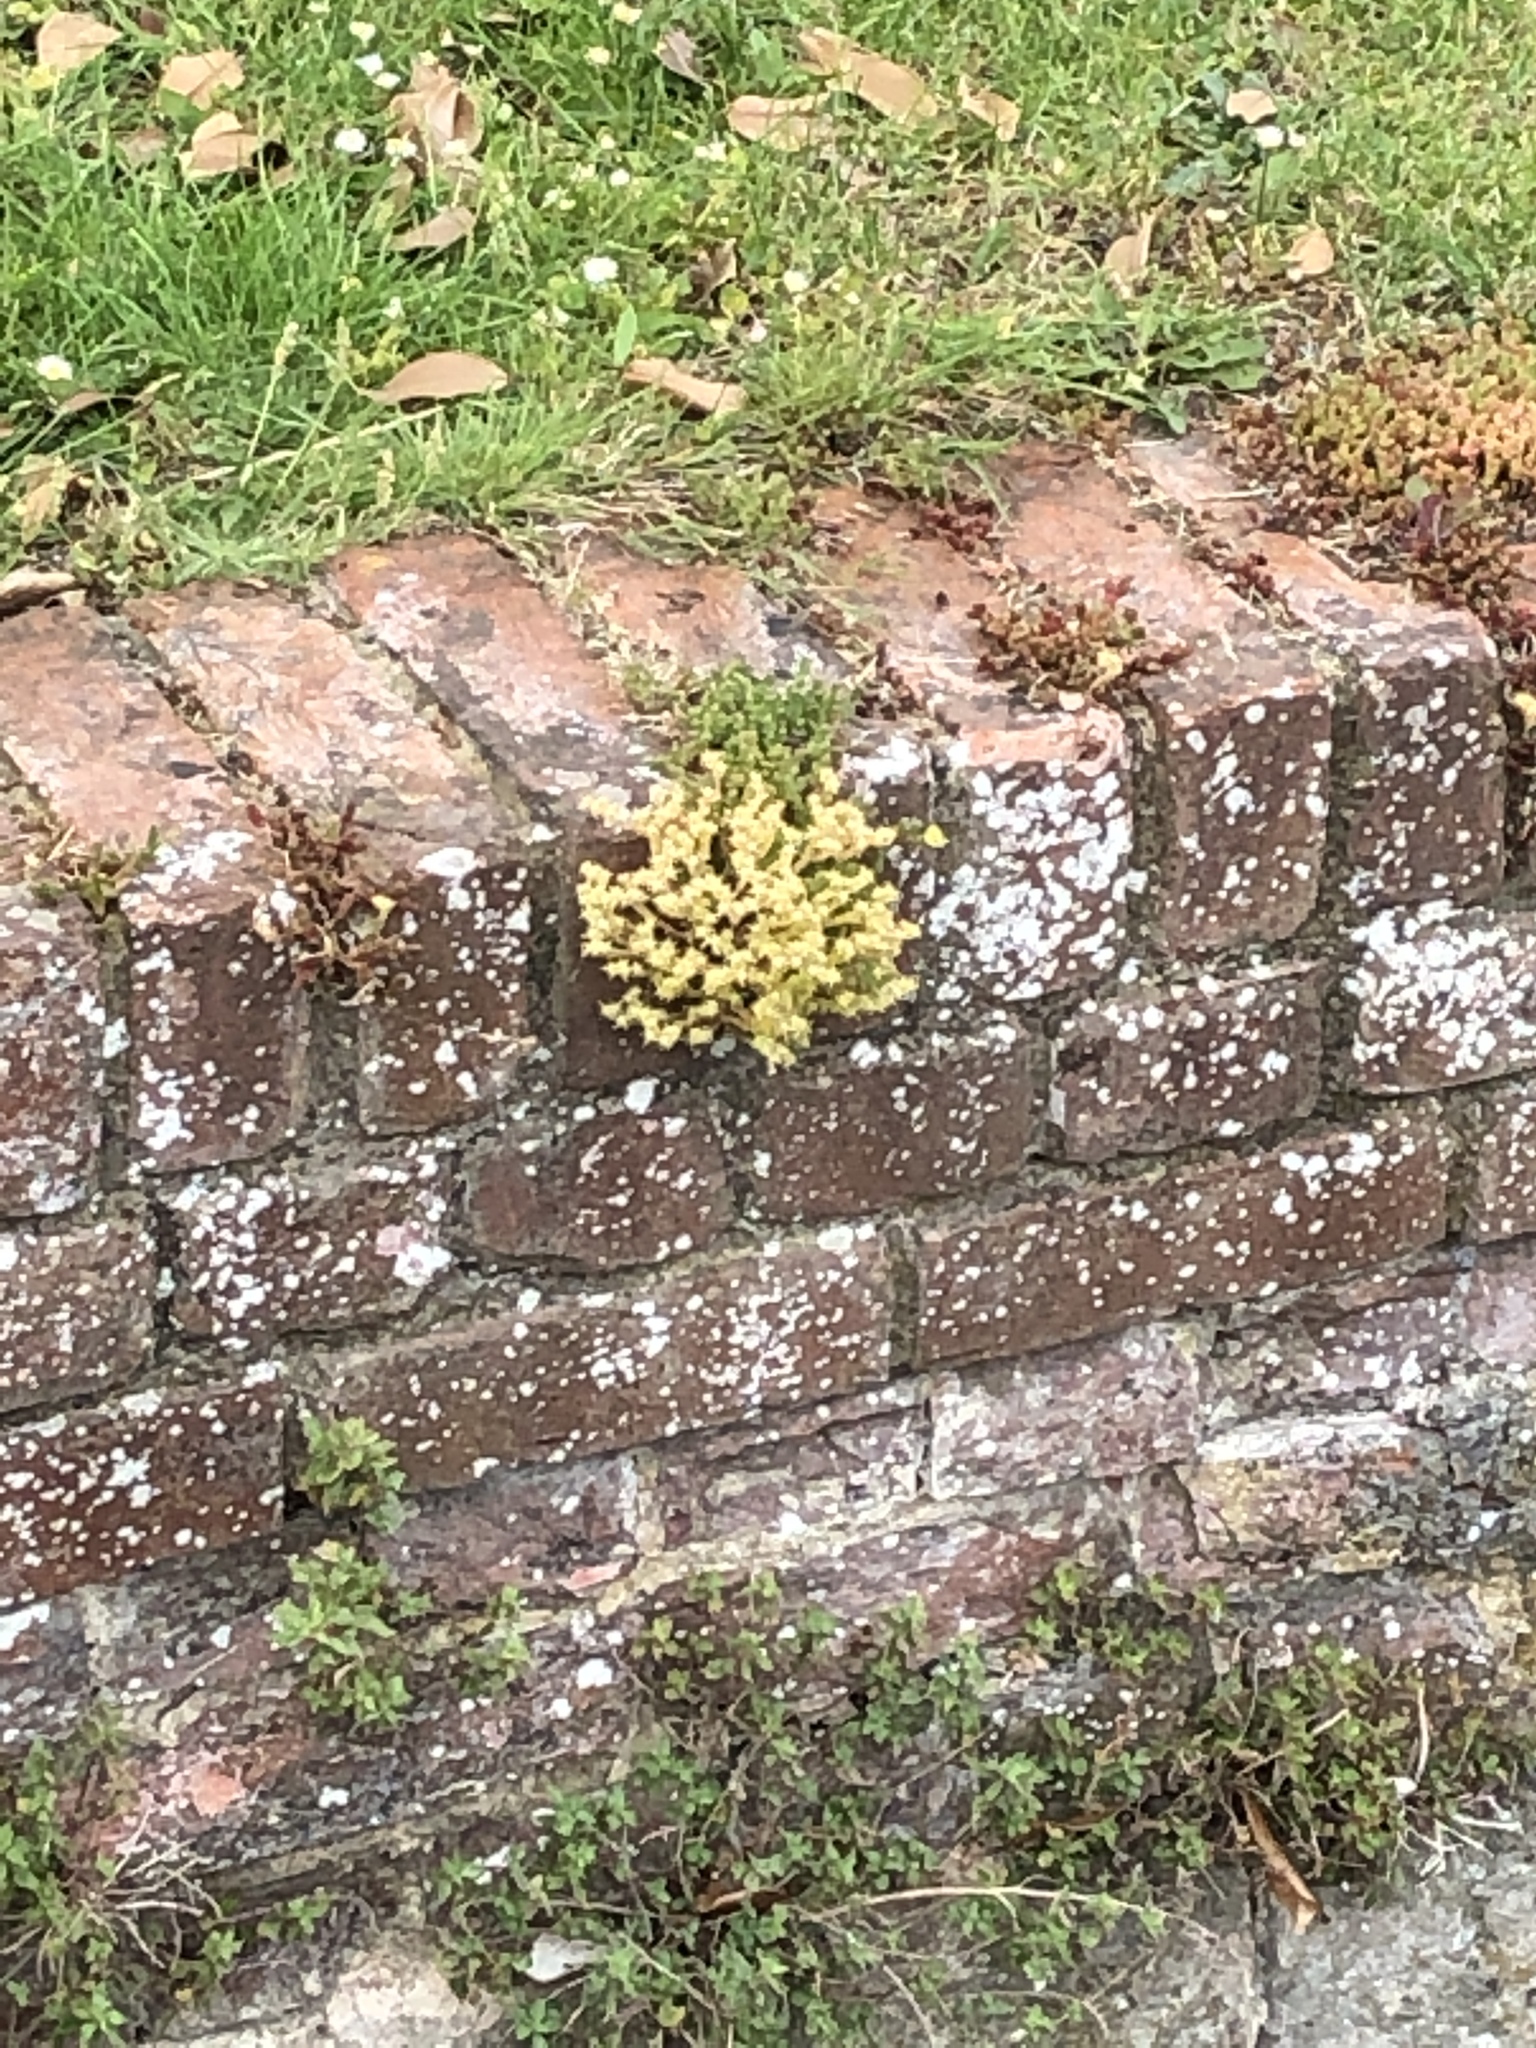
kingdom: Plantae
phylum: Tracheophyta
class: Magnoliopsida
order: Saxifragales
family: Crassulaceae
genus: Sedum
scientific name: Sedum acre
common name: Biting stonecrop
